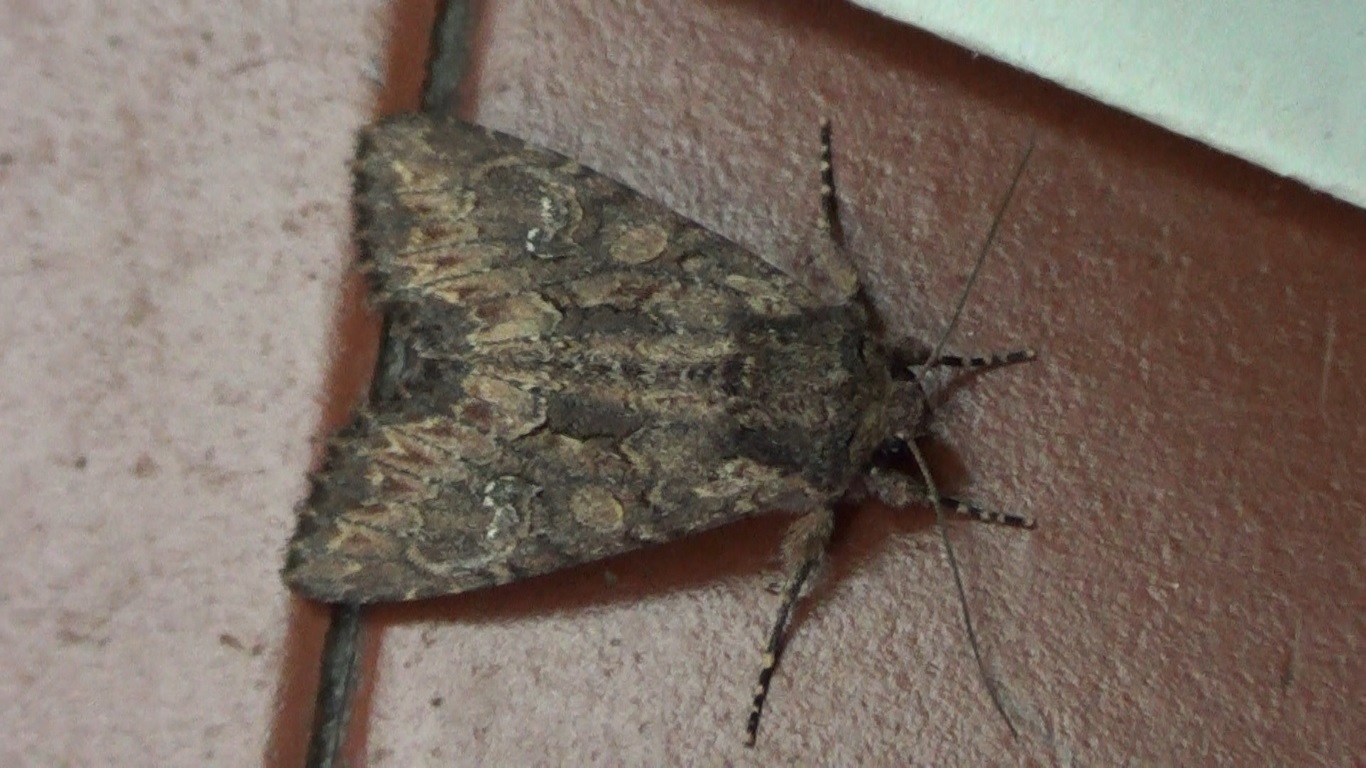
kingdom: Animalia
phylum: Arthropoda
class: Insecta
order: Lepidoptera
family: Noctuidae
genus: Mniotype
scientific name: Mniotype solieri
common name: Bedrule brocade
